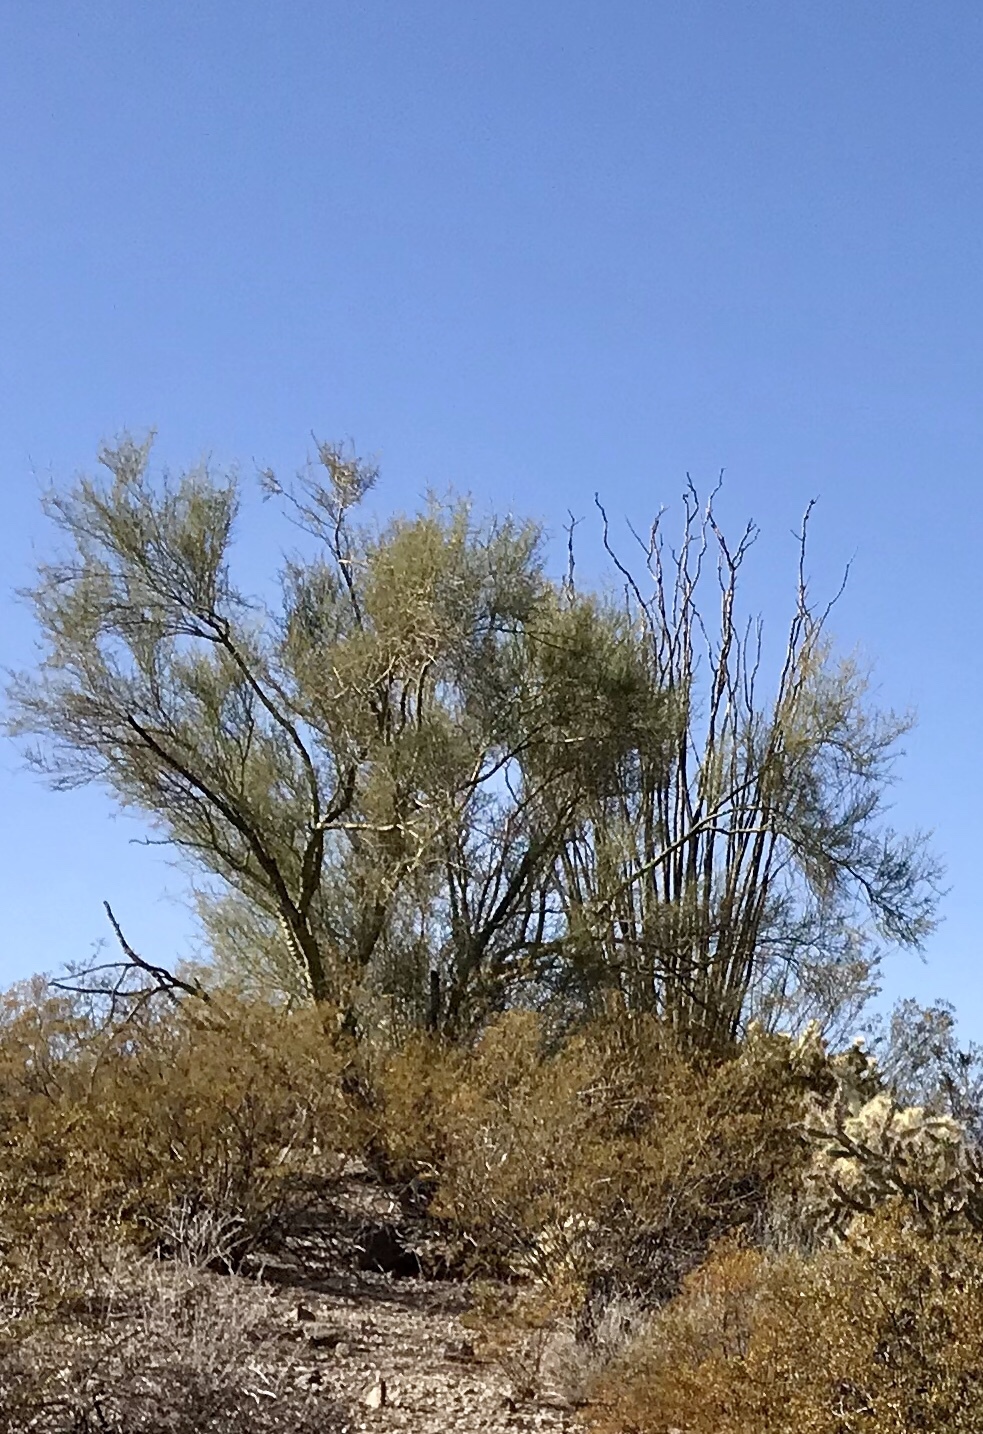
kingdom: Plantae
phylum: Tracheophyta
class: Magnoliopsida
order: Fabales
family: Fabaceae
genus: Parkinsonia
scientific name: Parkinsonia florida
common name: Blue paloverde
